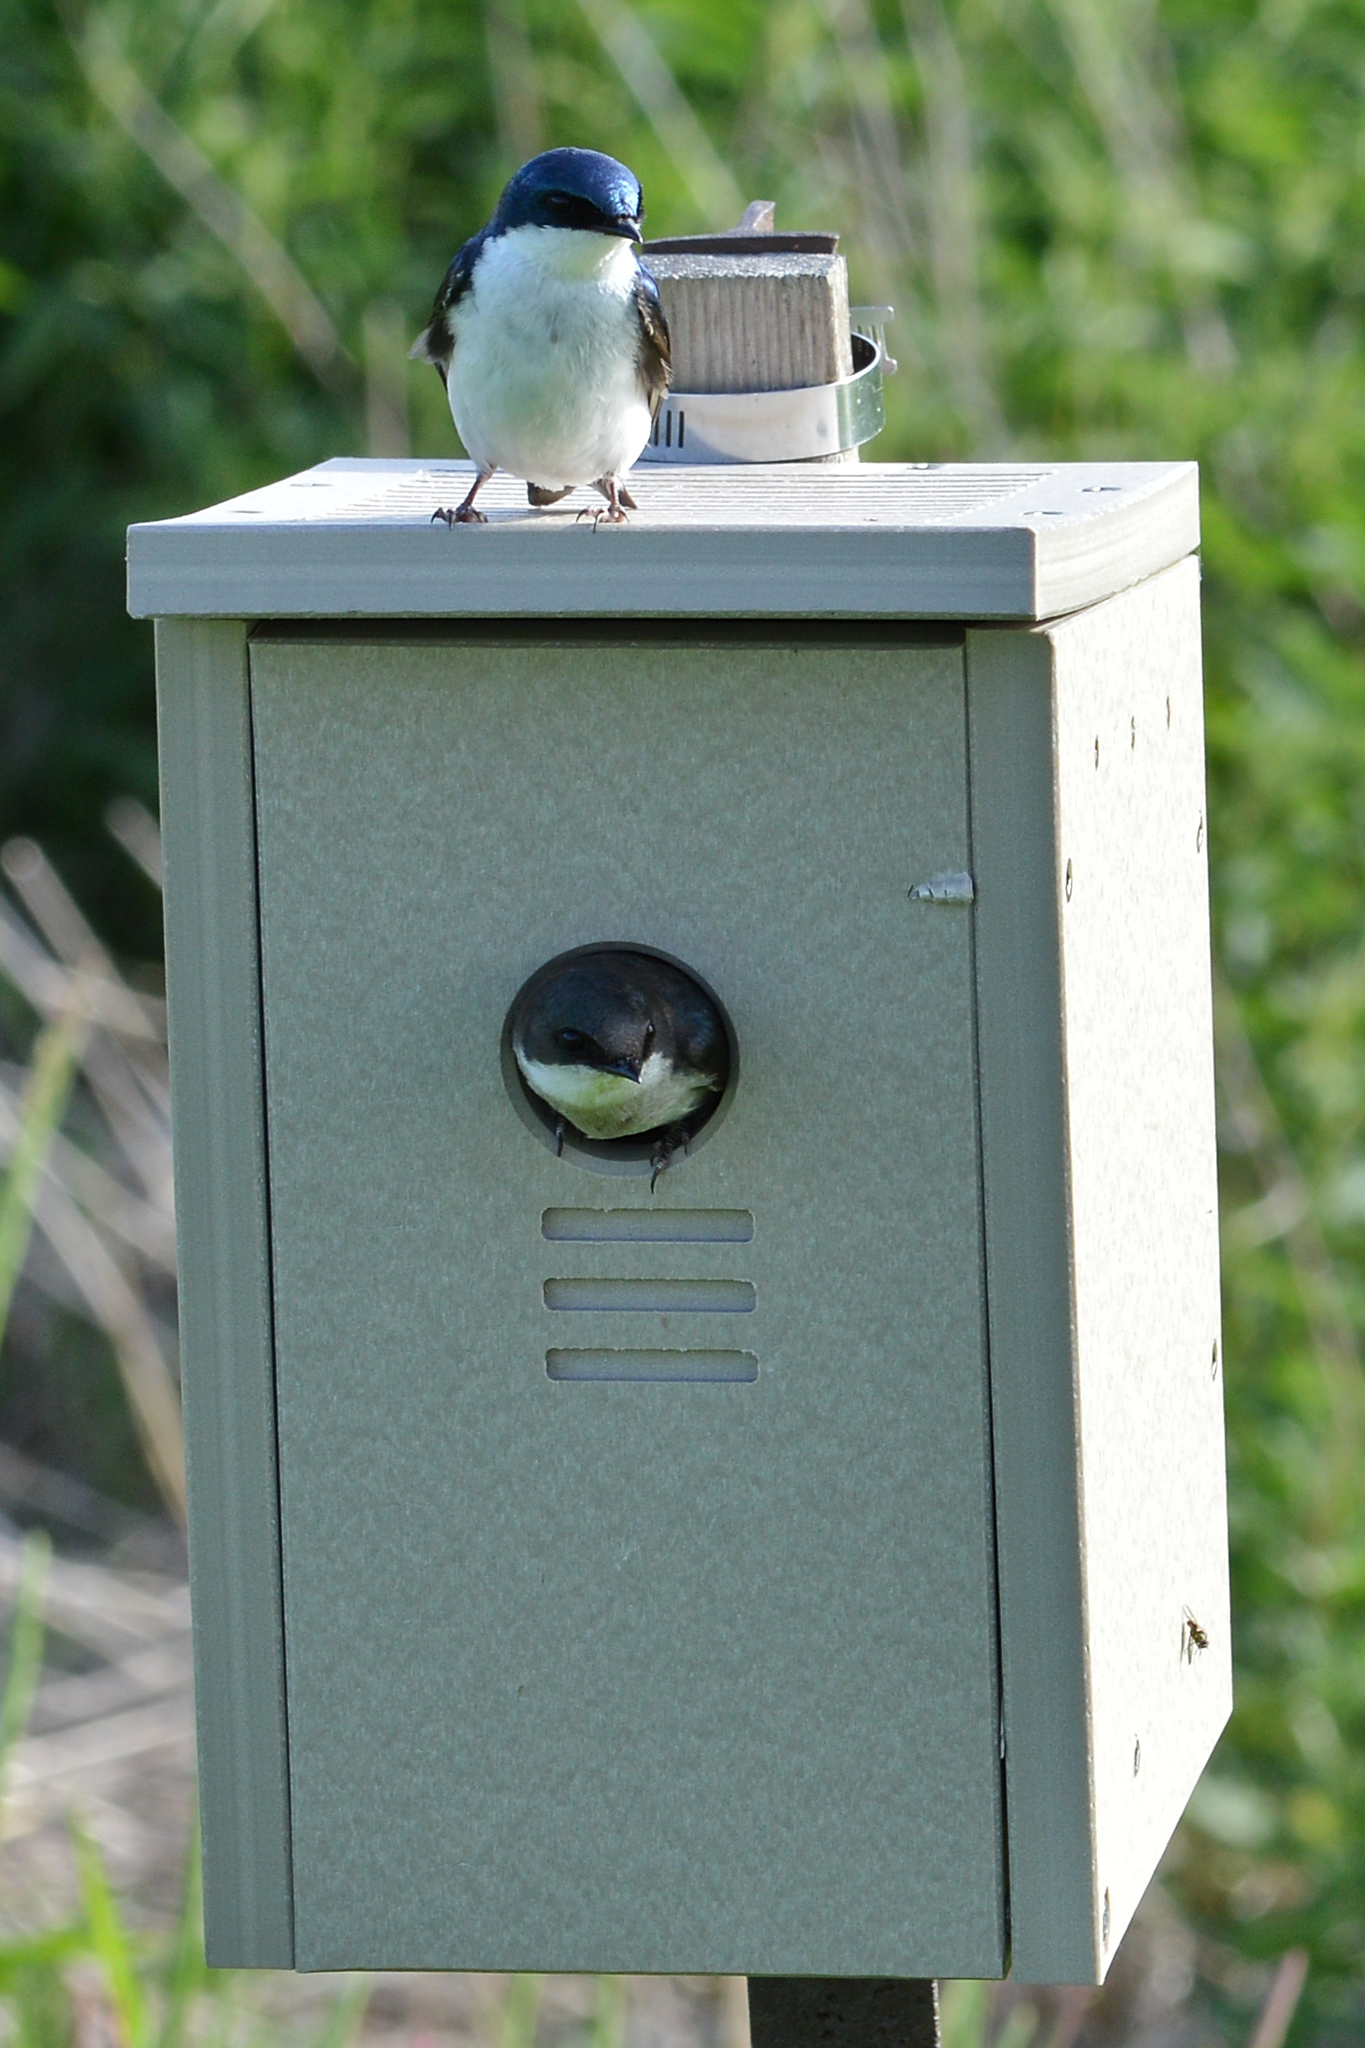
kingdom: Animalia
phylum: Chordata
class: Aves
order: Passeriformes
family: Hirundinidae
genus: Tachycineta
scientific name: Tachycineta bicolor
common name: Tree swallow
